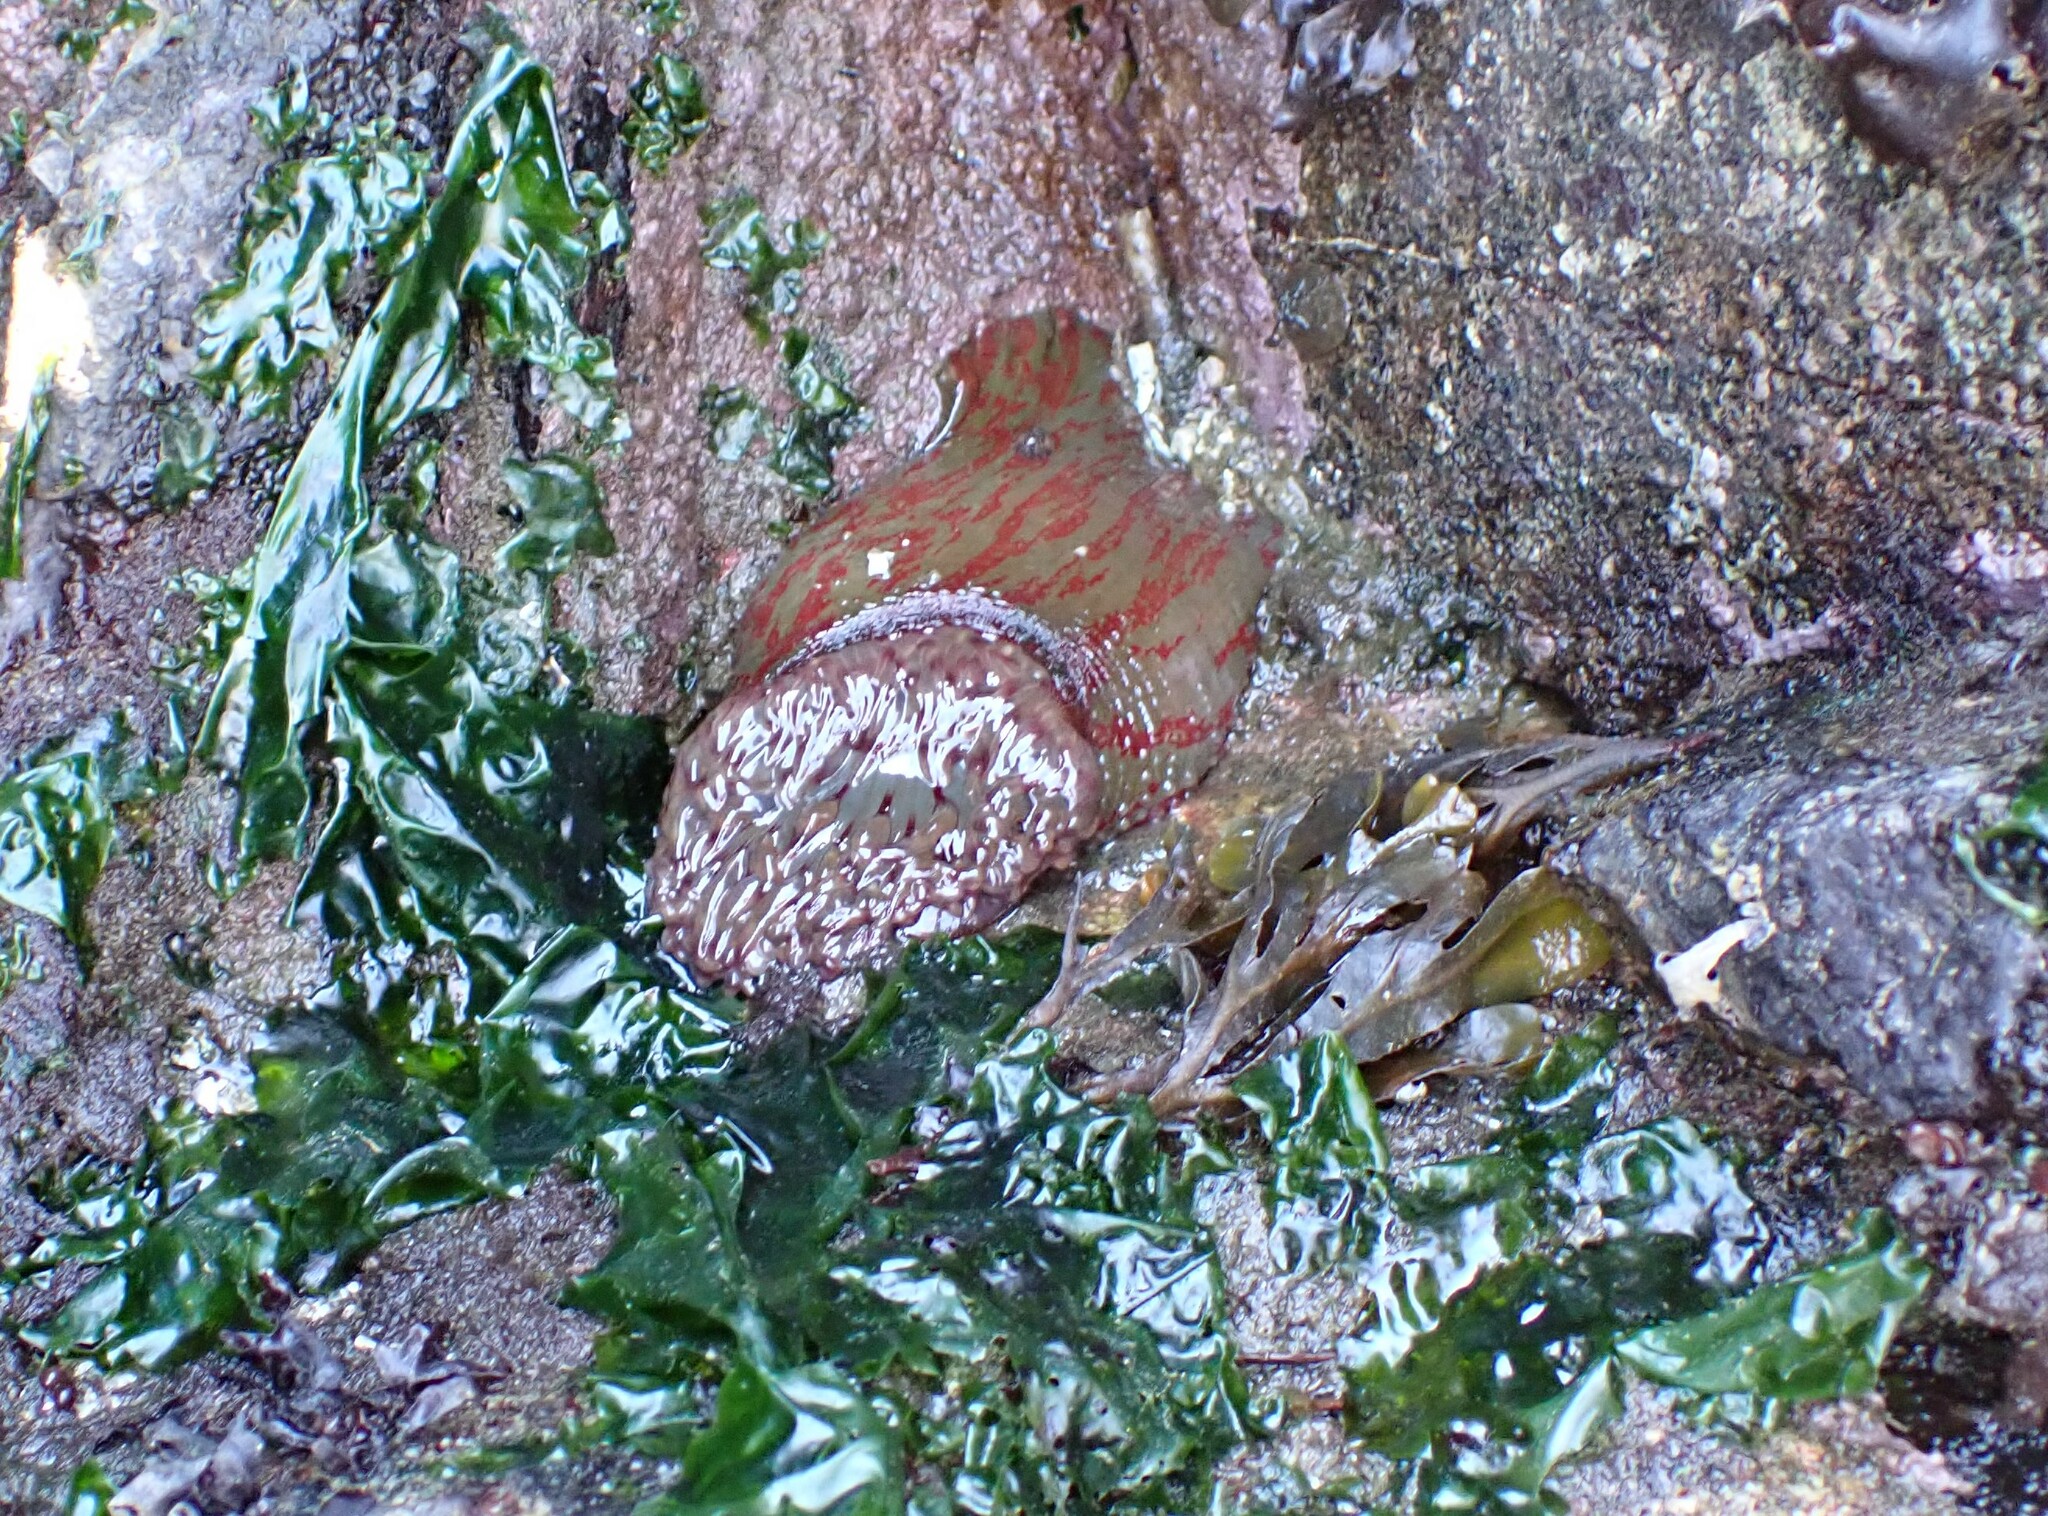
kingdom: Animalia
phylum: Cnidaria
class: Anthozoa
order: Actiniaria
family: Actiniidae
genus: Urticina
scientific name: Urticina grebelnyi
